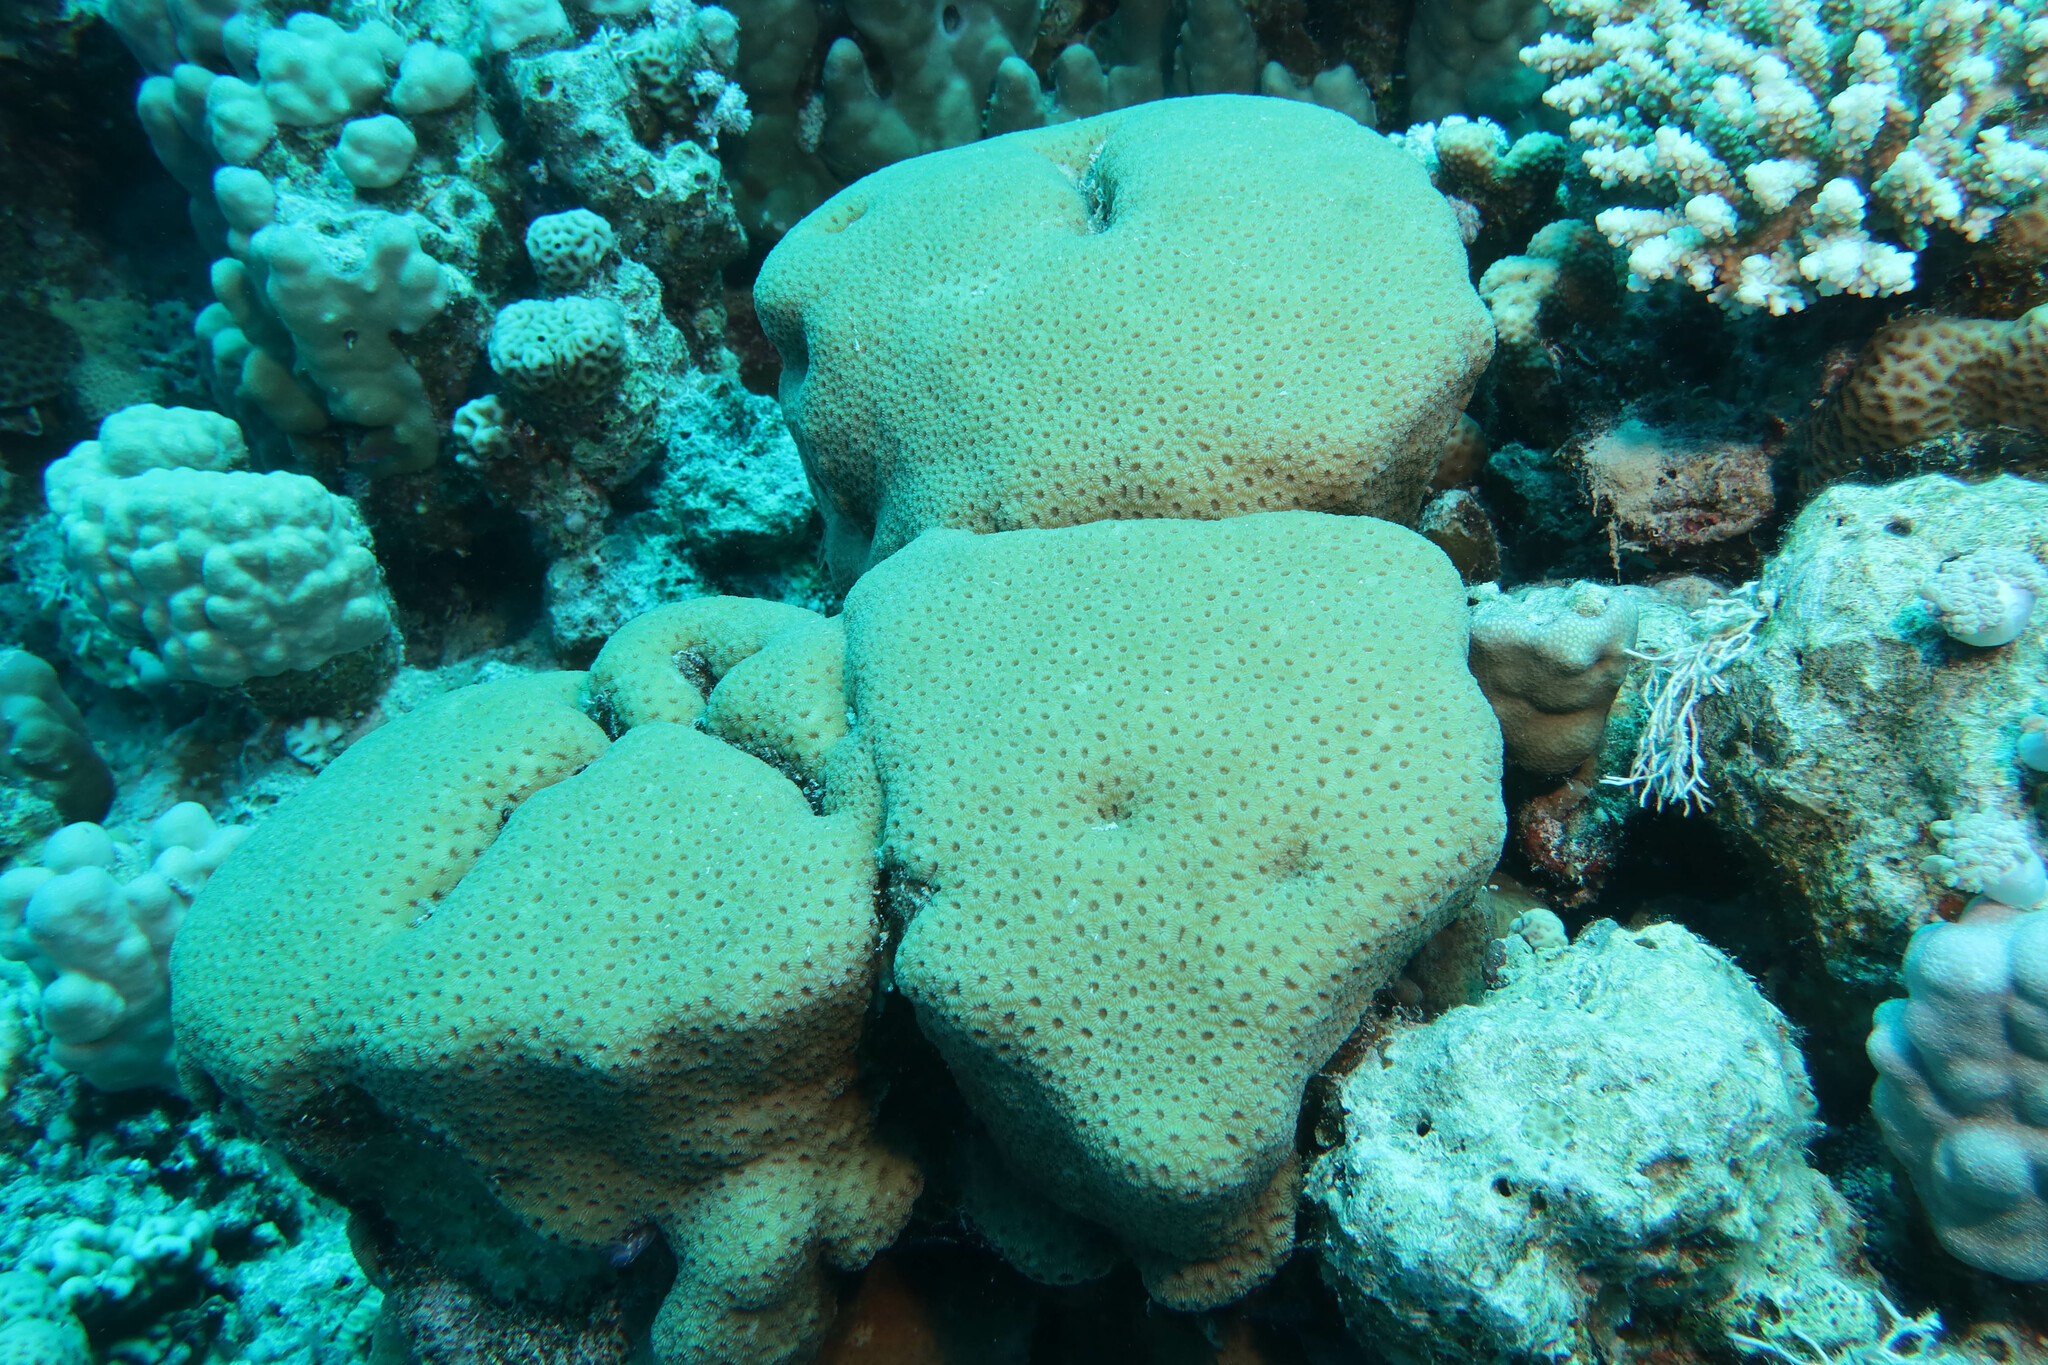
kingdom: Animalia
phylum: Cnidaria
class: Anthozoa
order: Scleractinia
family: Merulinidae
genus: Goniastrea
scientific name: Goniastrea stelligera
